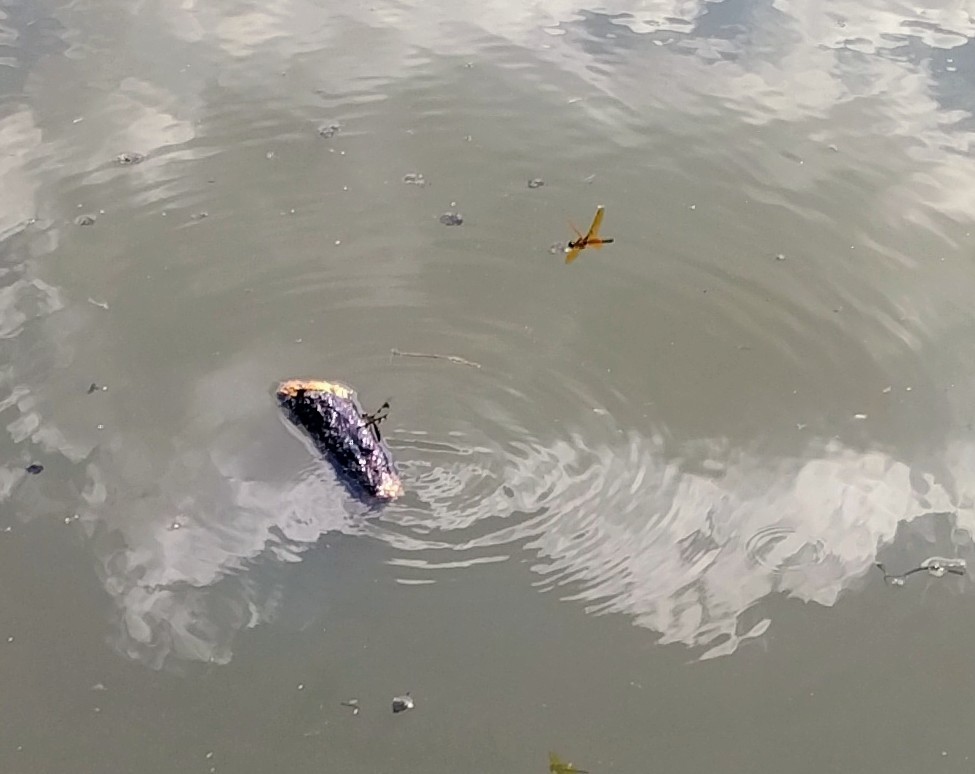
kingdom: Animalia
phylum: Arthropoda
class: Insecta
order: Odonata
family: Libellulidae
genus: Perithemis
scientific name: Perithemis tenera
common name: Eastern amberwing
